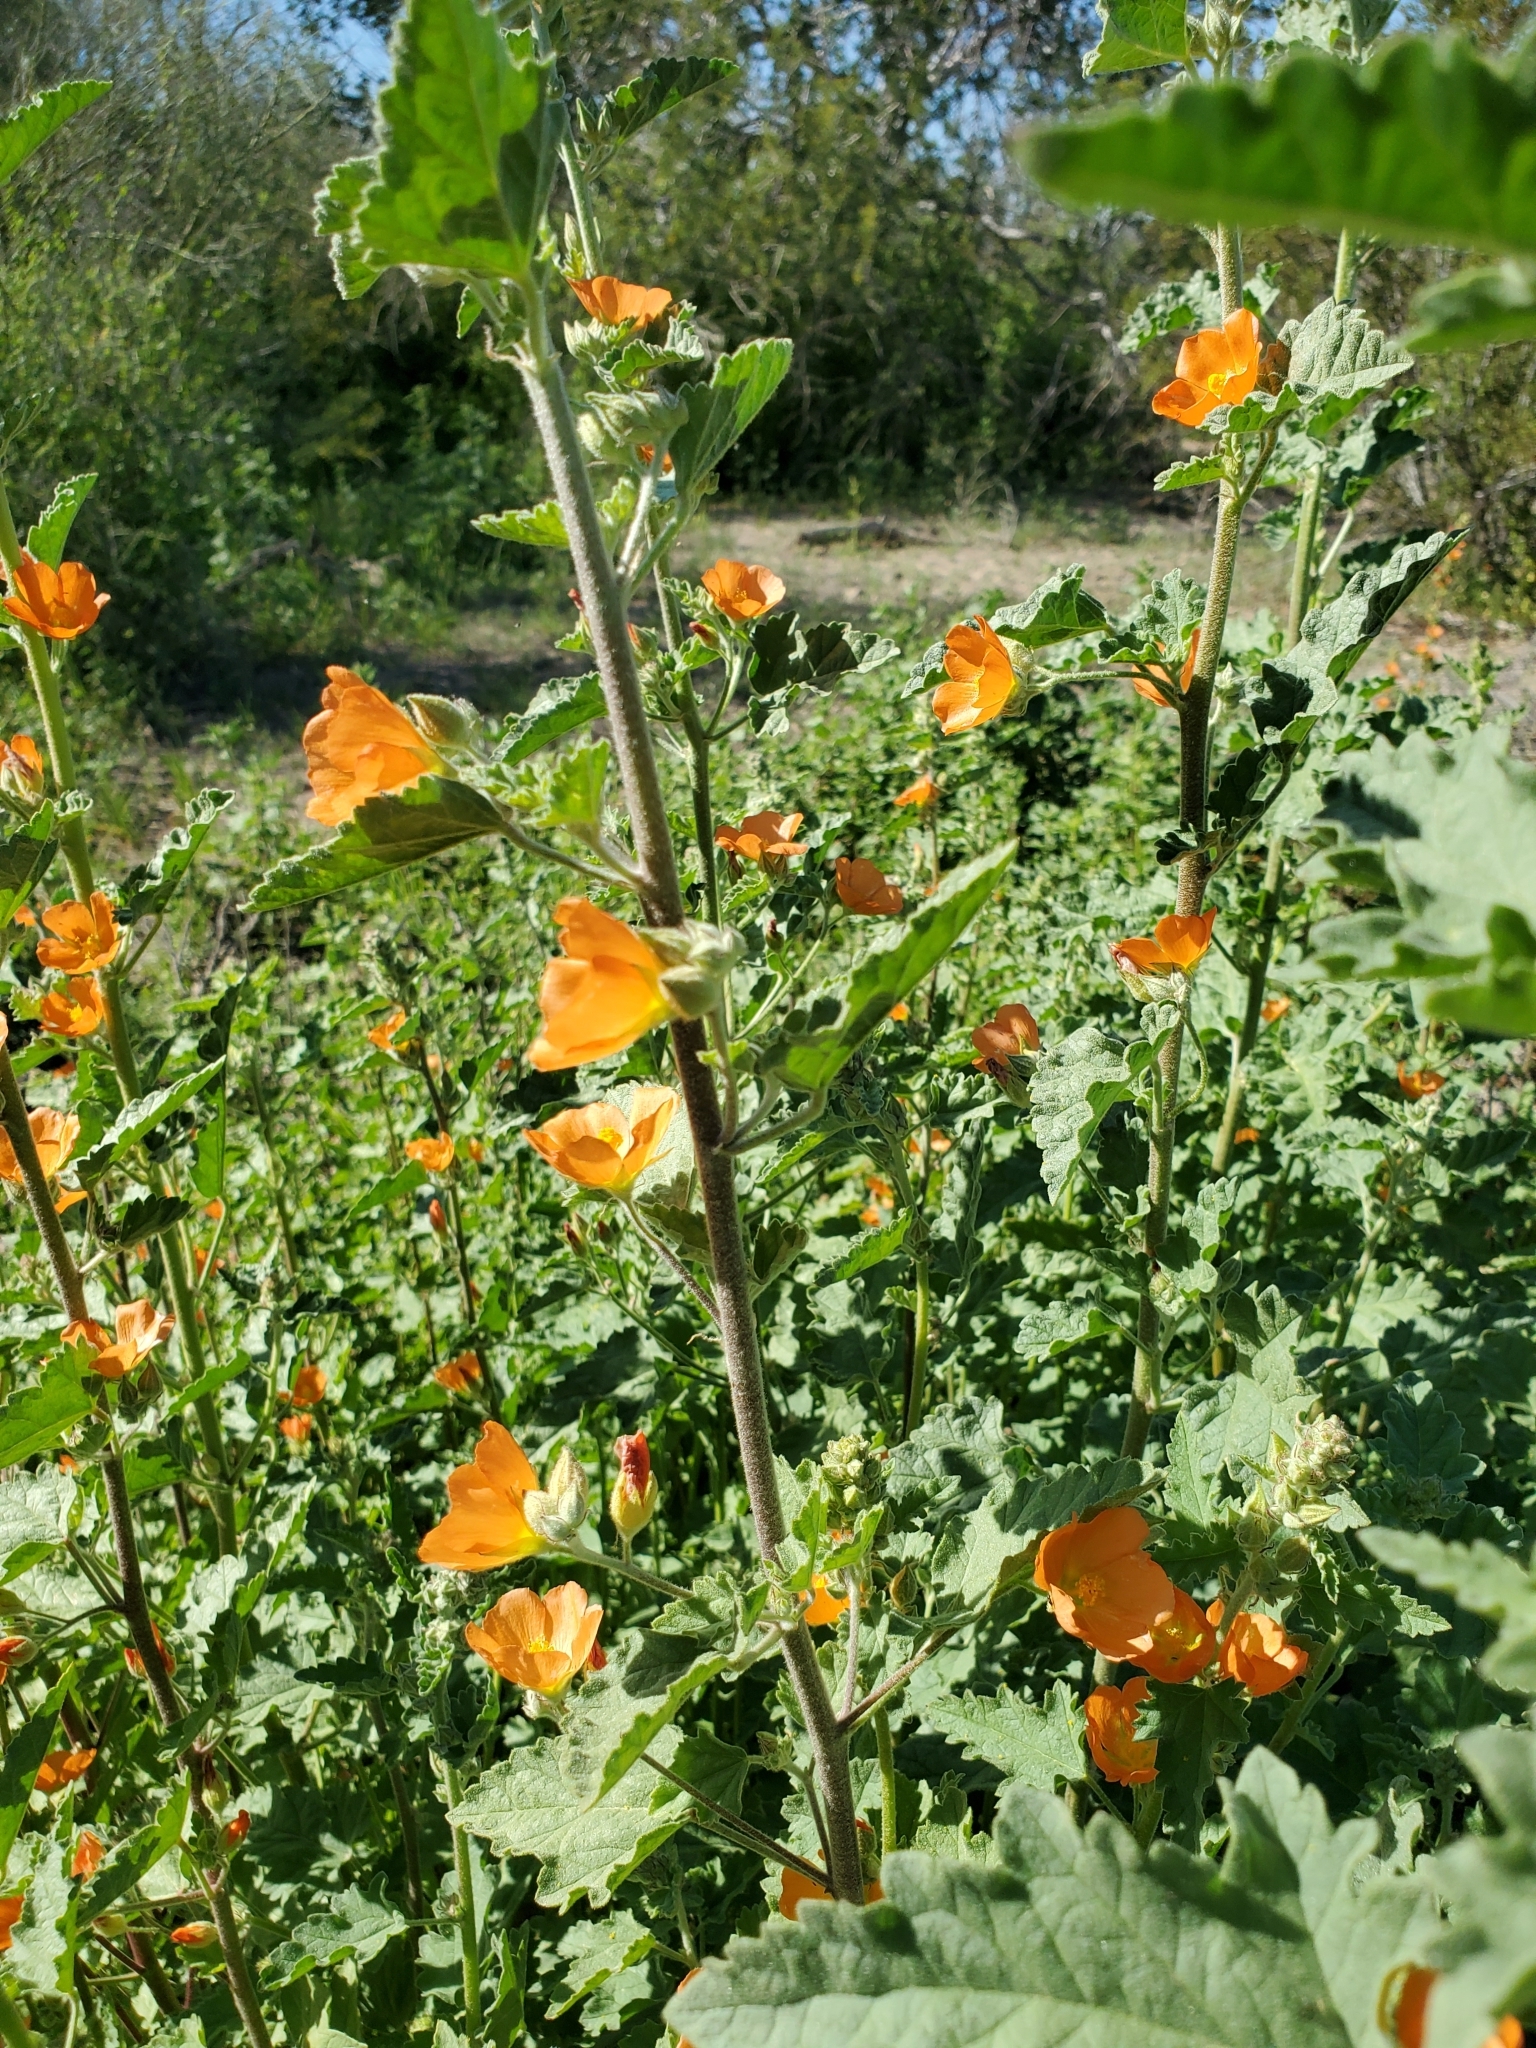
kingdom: Plantae
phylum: Tracheophyta
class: Magnoliopsida
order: Malvales
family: Malvaceae
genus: Sphaeralcea
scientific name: Sphaeralcea coulteri
